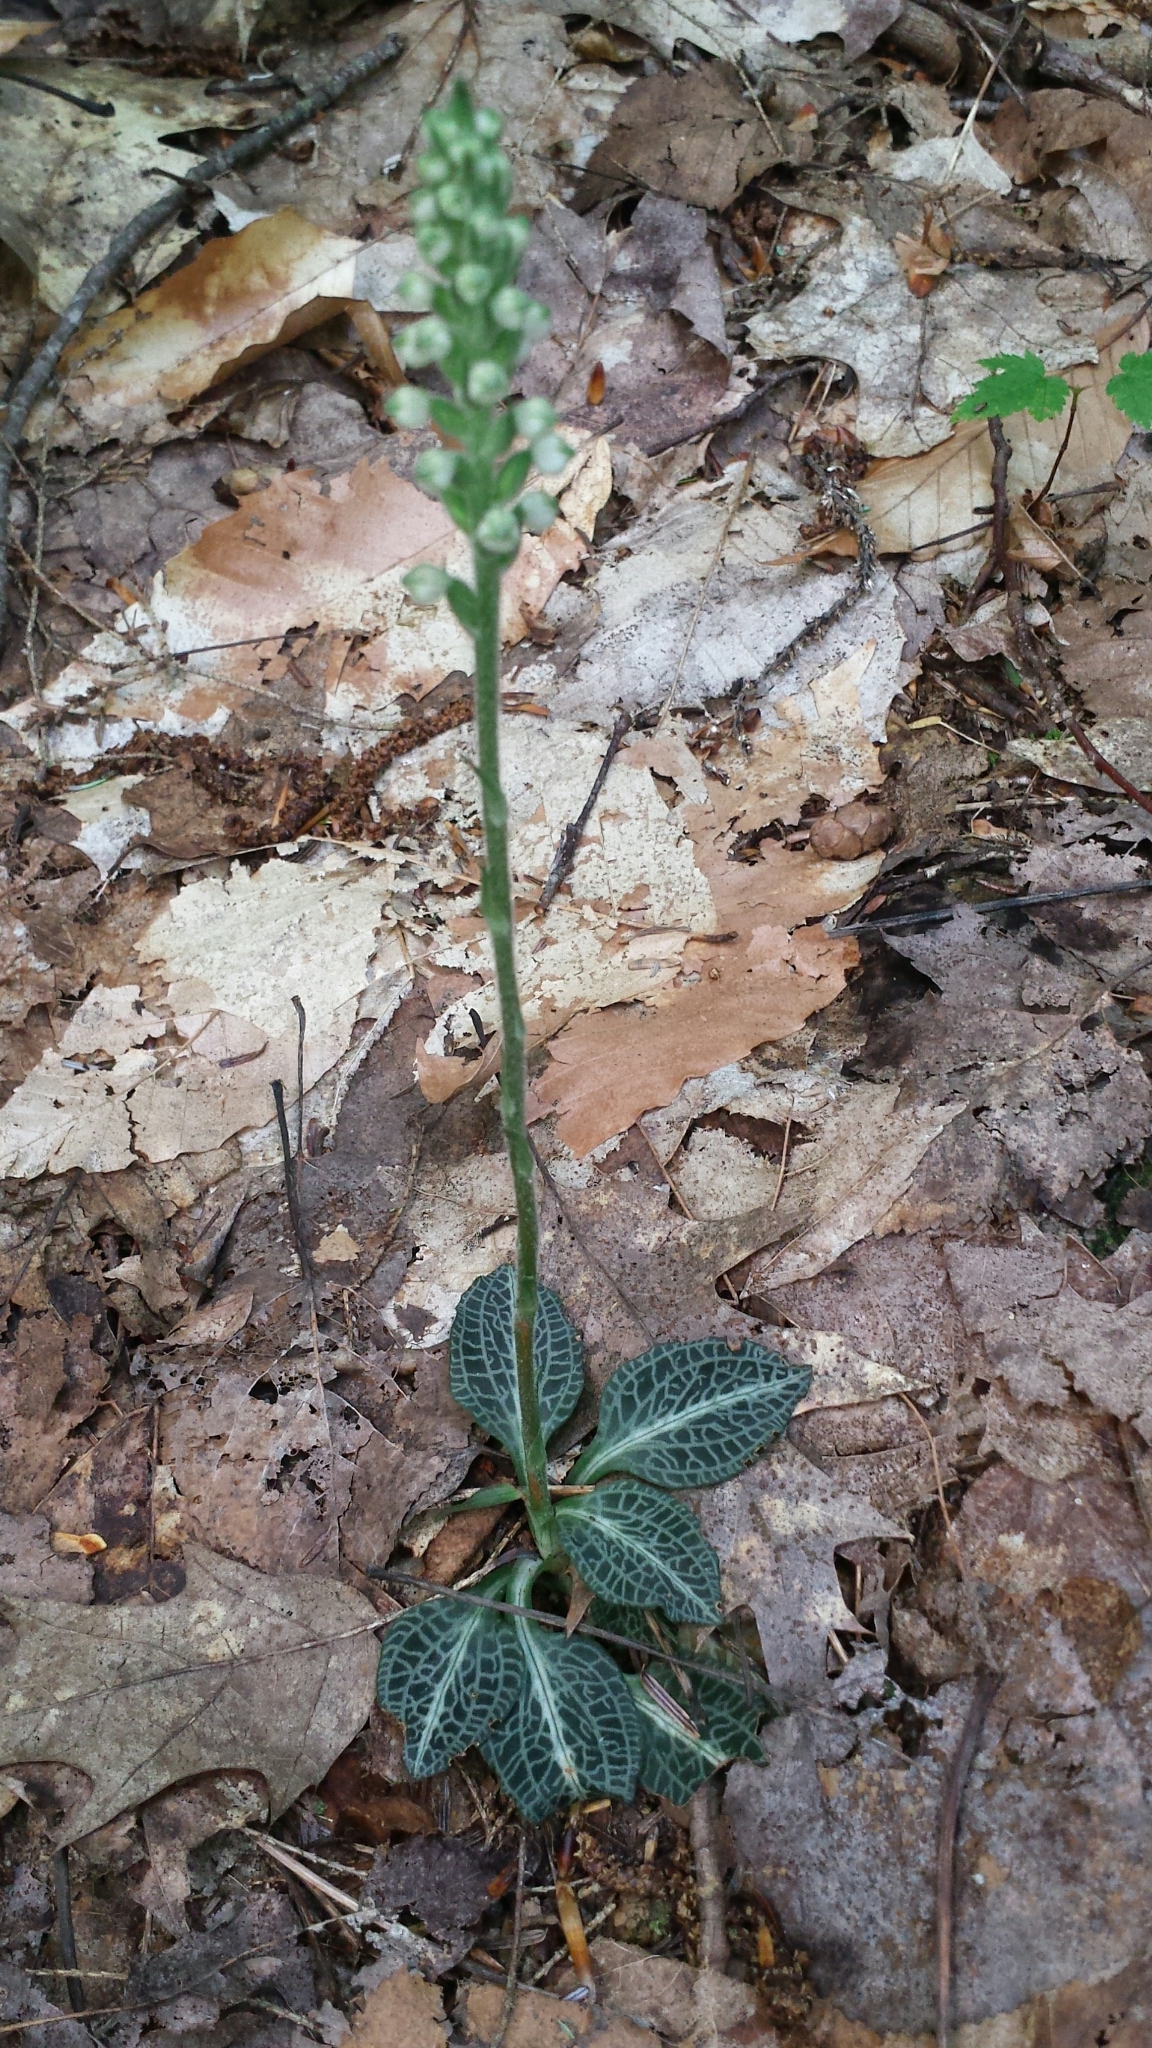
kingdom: Plantae
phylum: Tracheophyta
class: Liliopsida
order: Asparagales
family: Orchidaceae
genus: Goodyera
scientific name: Goodyera pubescens
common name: Downy rattlesnake-plantain
